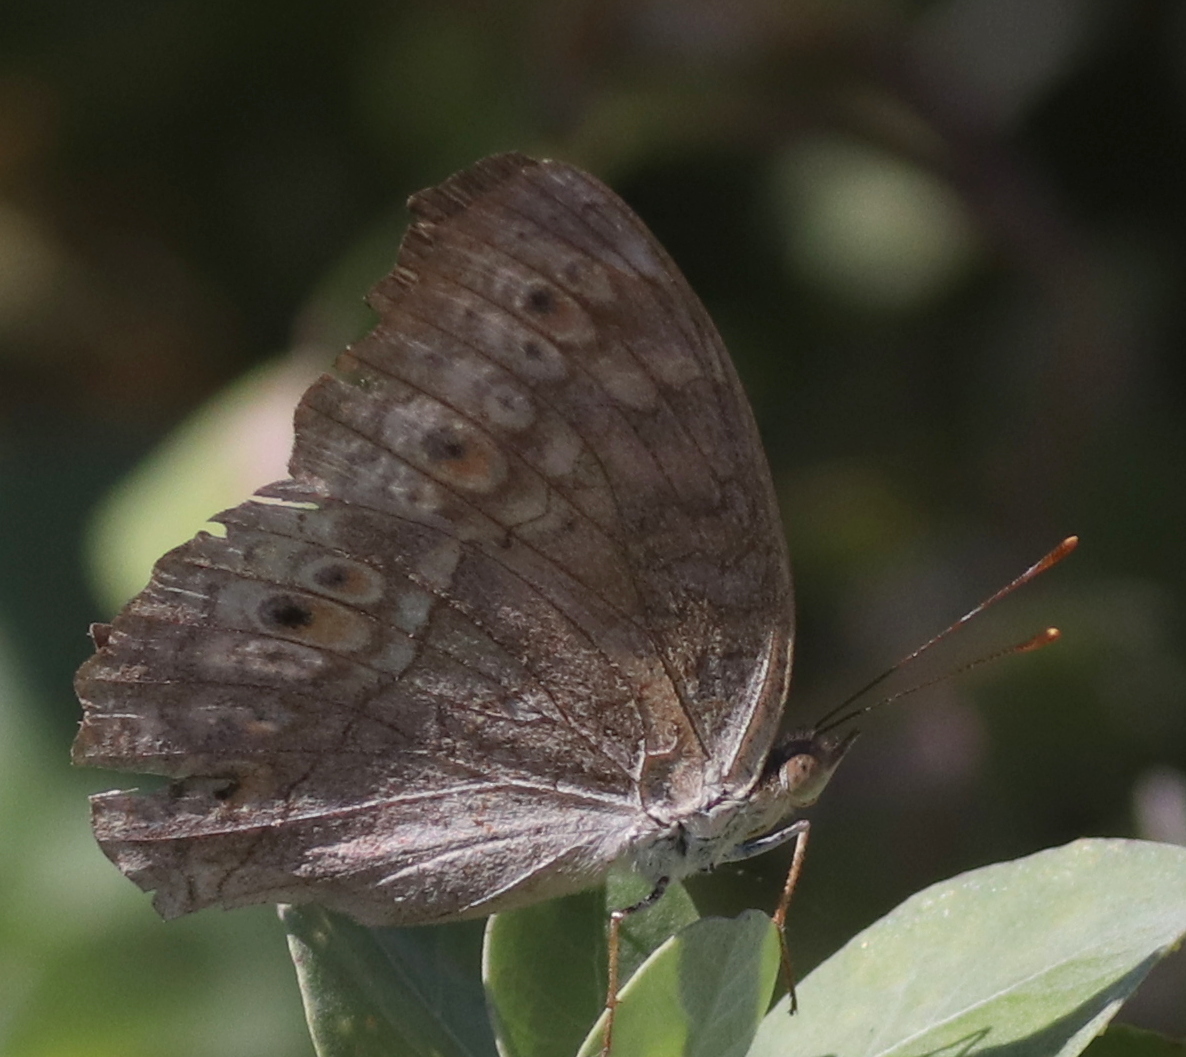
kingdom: Animalia
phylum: Arthropoda
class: Insecta
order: Lepidoptera
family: Nymphalidae
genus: Junonia
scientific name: Junonia atlites
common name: Grey pansy
